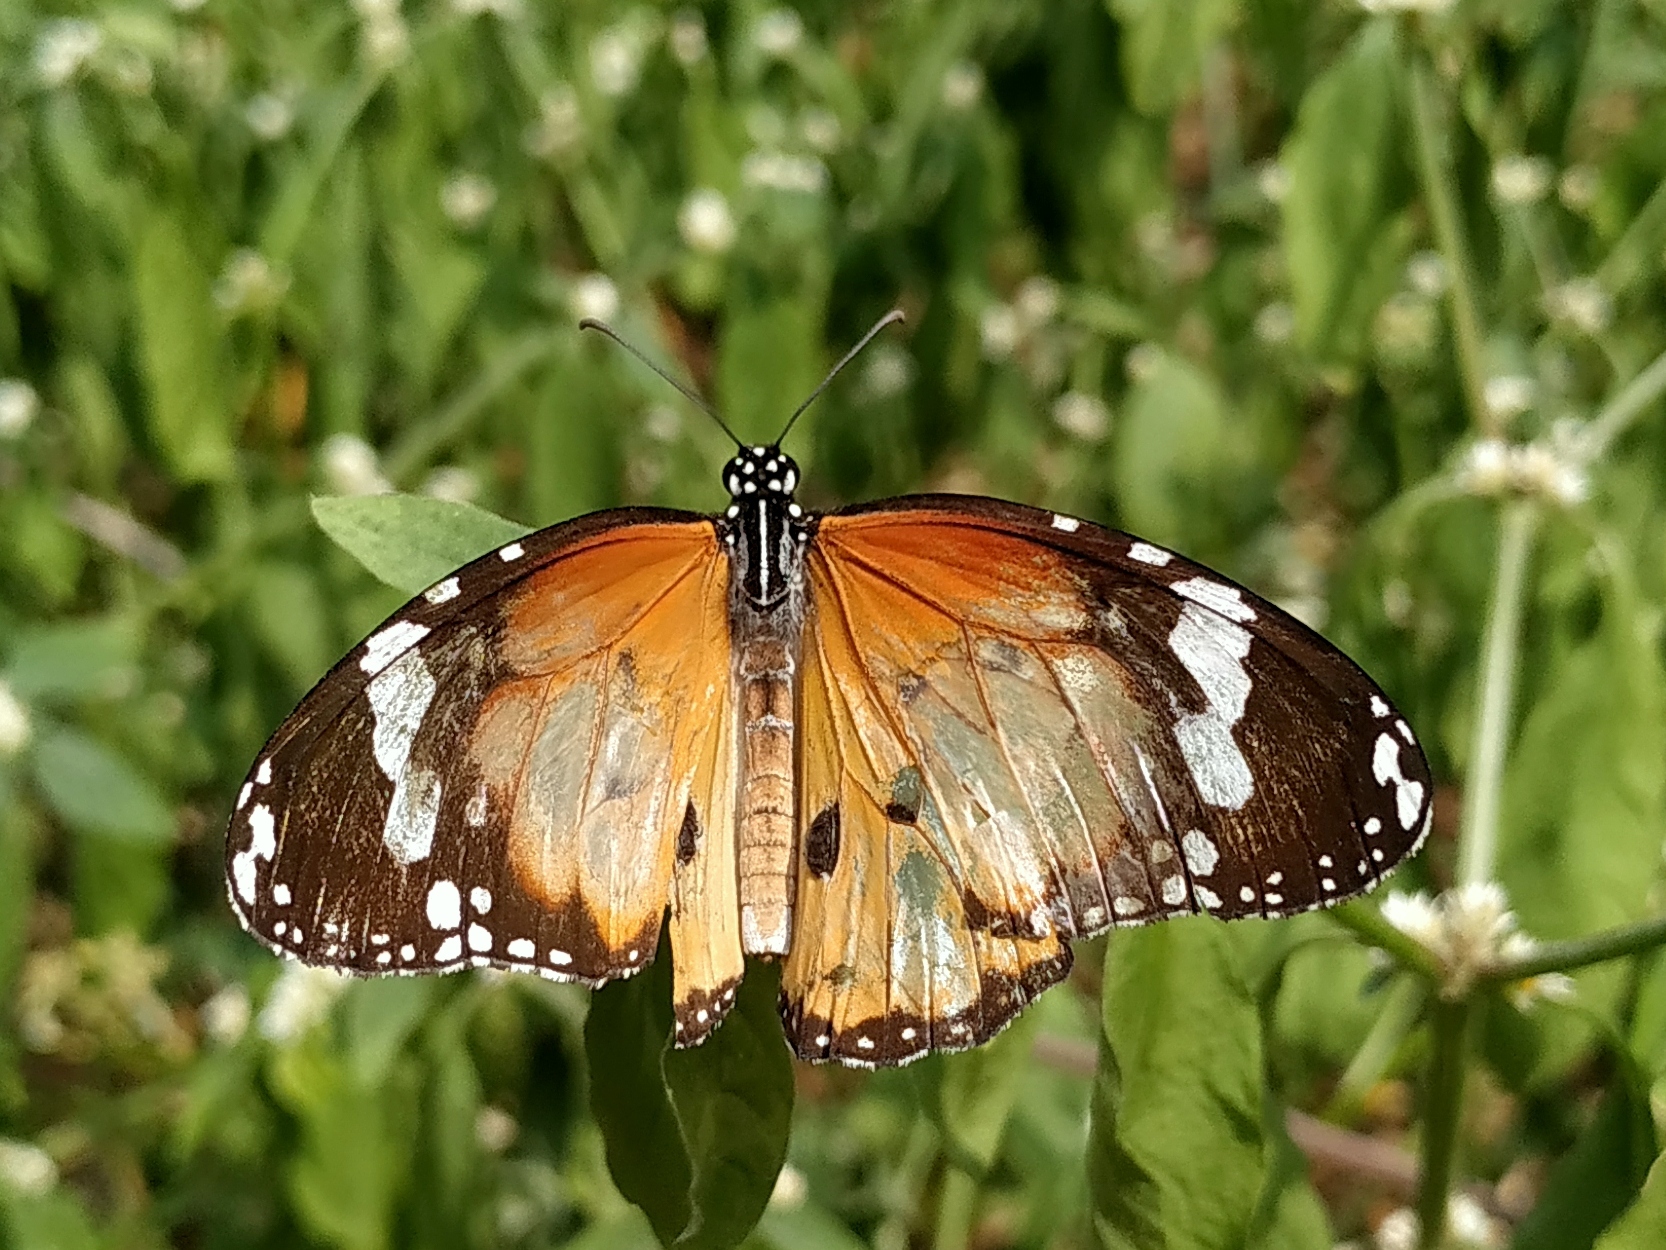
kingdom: Animalia
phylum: Arthropoda
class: Insecta
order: Lepidoptera
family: Nymphalidae
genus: Danaus
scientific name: Danaus chrysippus
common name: Plain tiger
